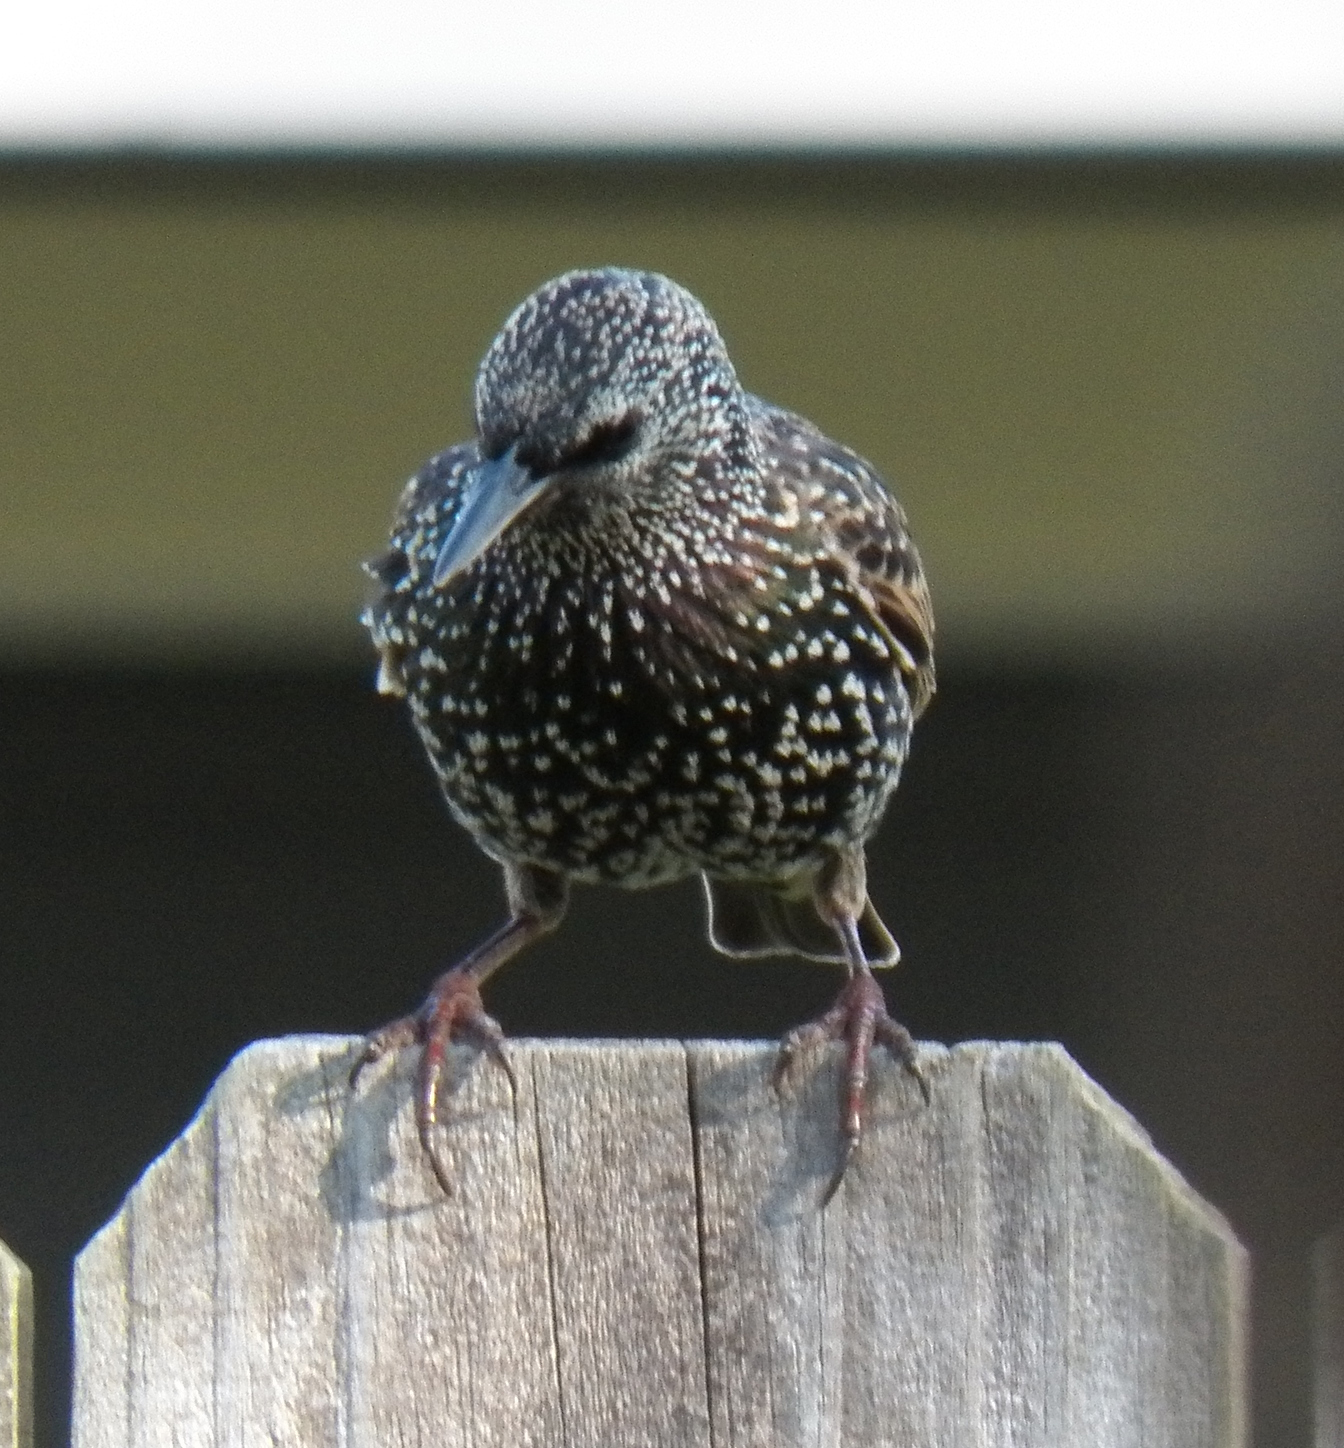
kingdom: Animalia
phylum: Chordata
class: Aves
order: Passeriformes
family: Sturnidae
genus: Sturnus
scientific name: Sturnus vulgaris
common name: Common starling
